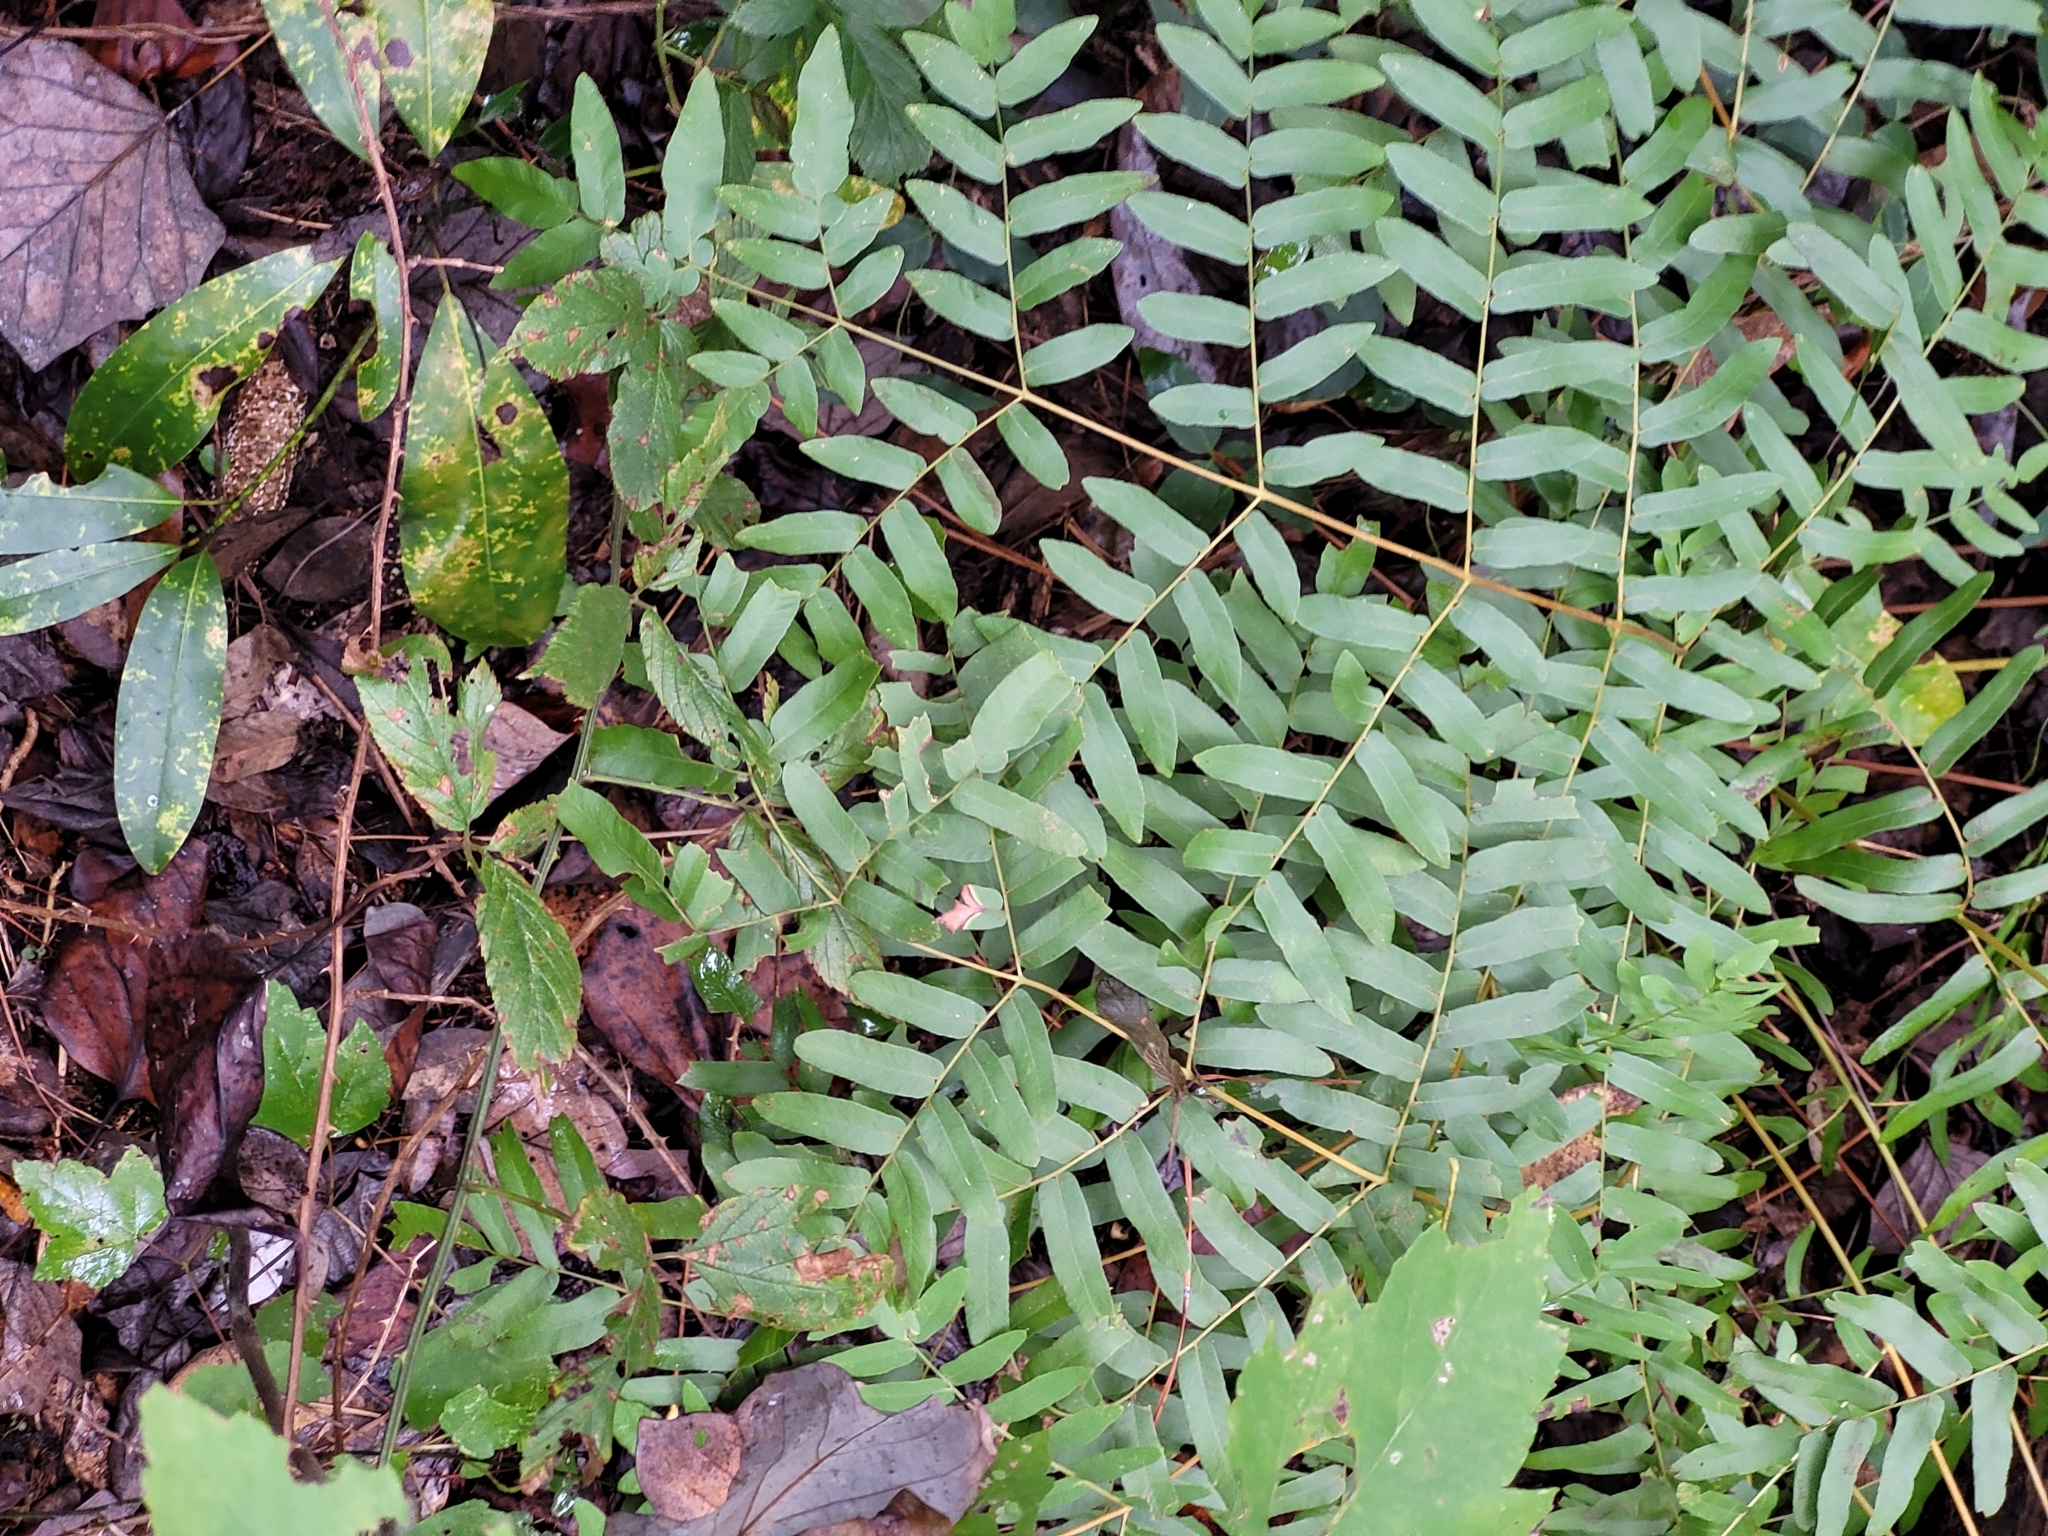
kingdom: Plantae
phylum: Tracheophyta
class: Polypodiopsida
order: Osmundales
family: Osmundaceae
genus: Osmunda
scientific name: Osmunda spectabilis
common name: American royal fern
